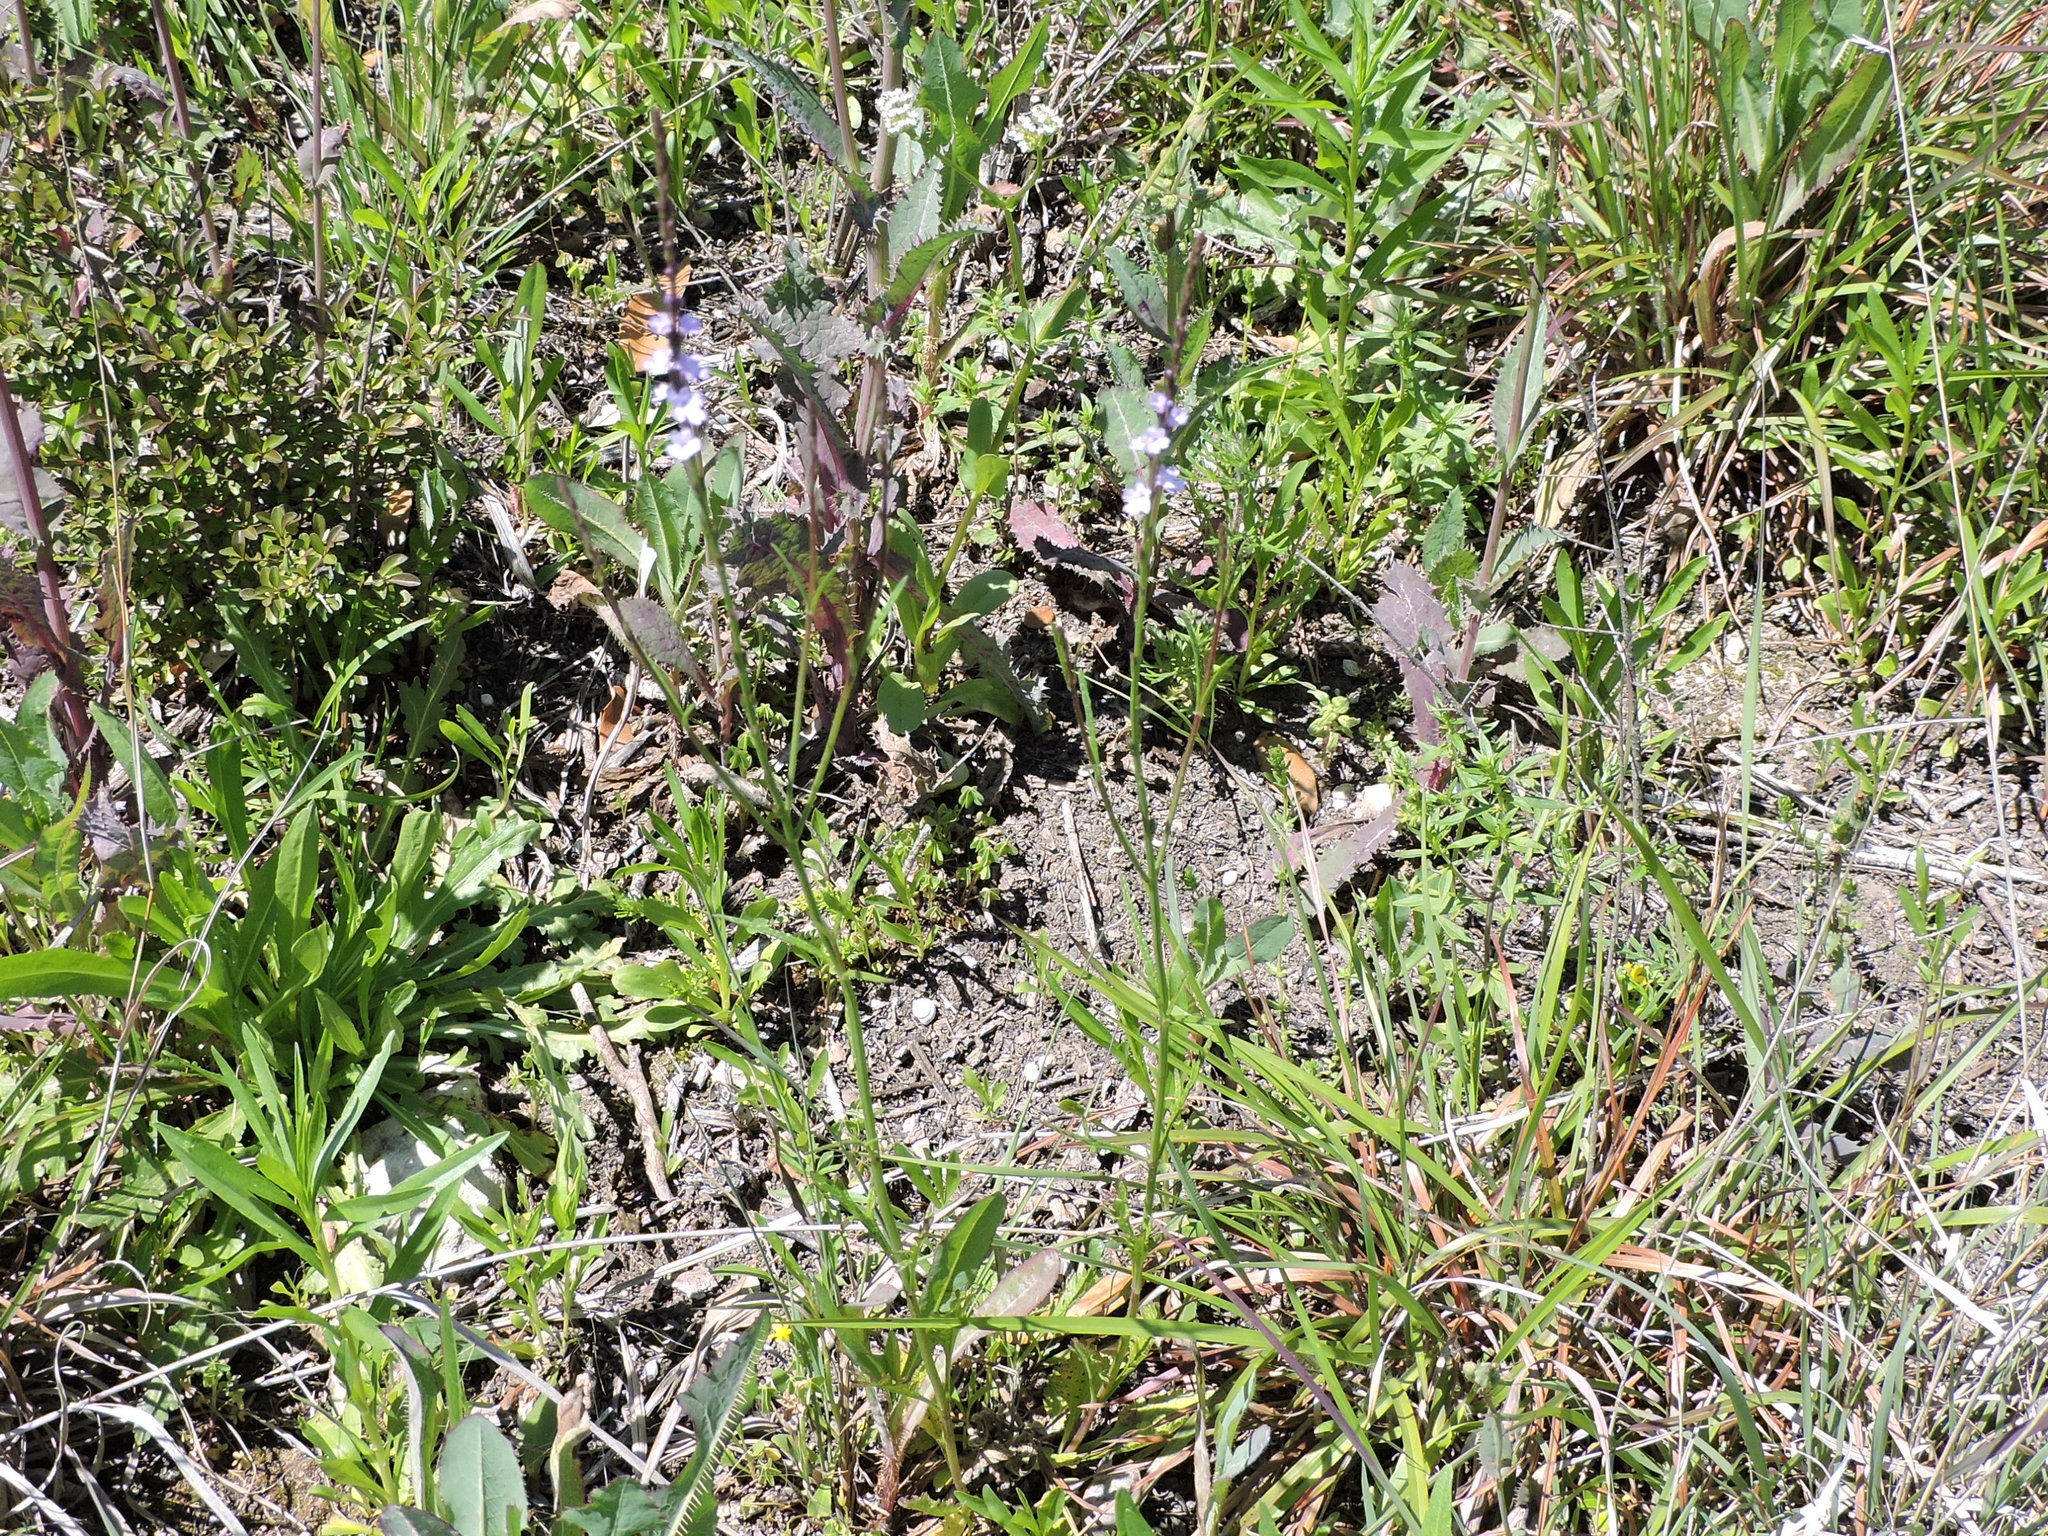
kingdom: Plantae
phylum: Tracheophyta
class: Magnoliopsida
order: Lamiales
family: Verbenaceae
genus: Verbena
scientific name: Verbena halei
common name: Texas vervain
